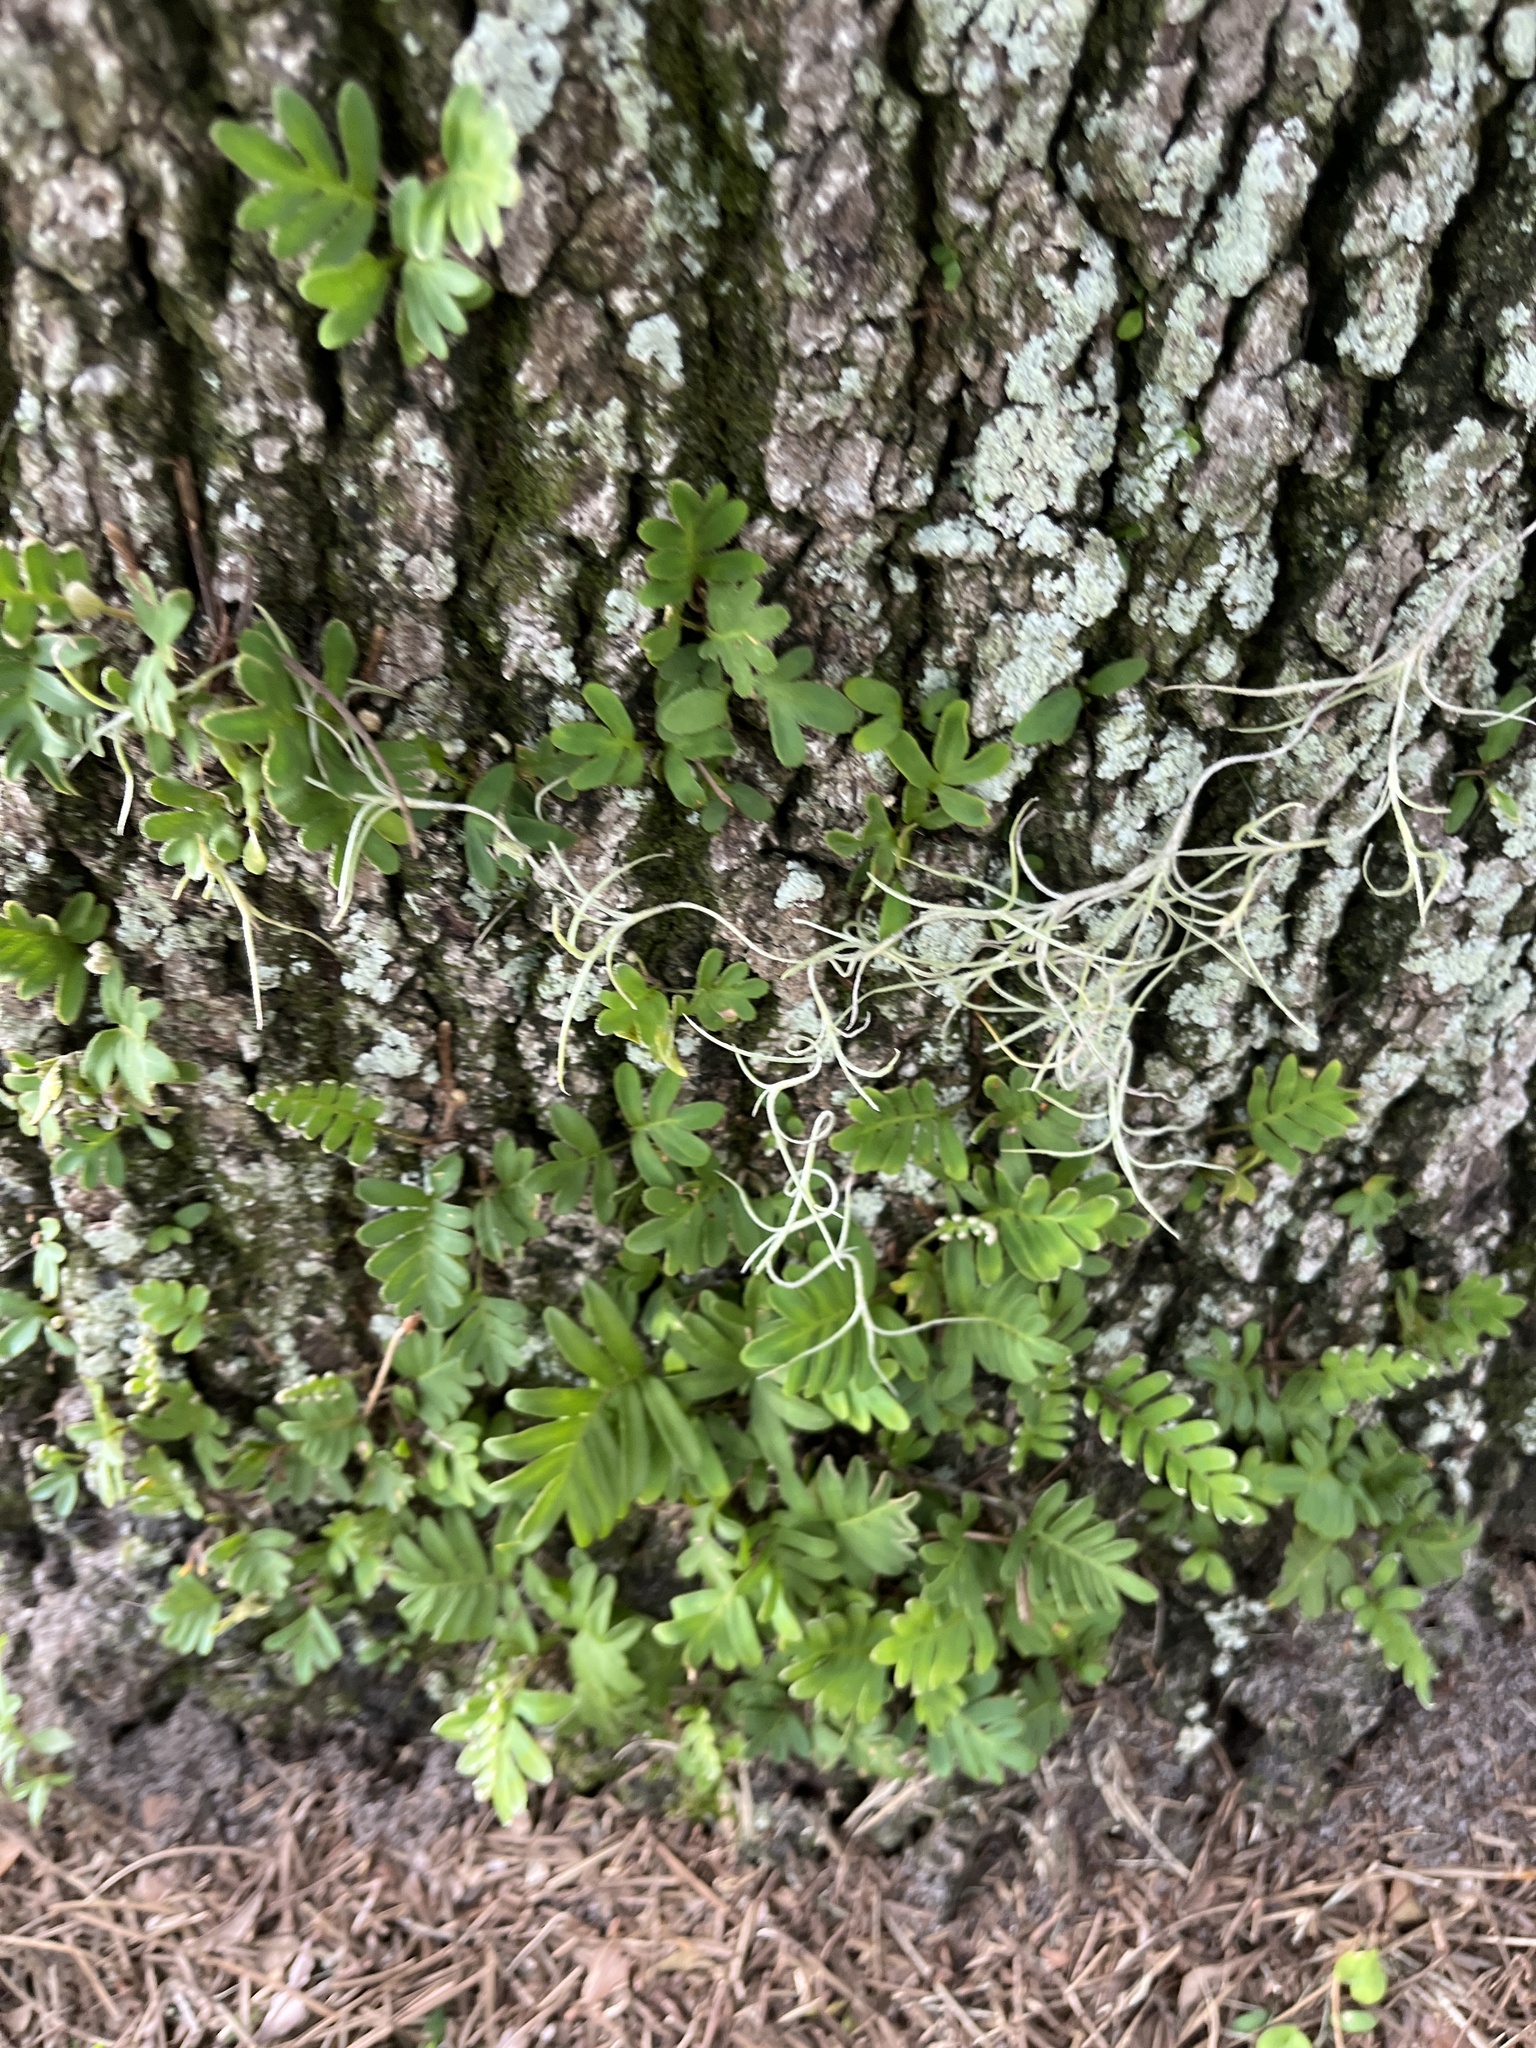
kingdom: Plantae
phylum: Tracheophyta
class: Polypodiopsida
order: Polypodiales
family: Polypodiaceae
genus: Pleopeltis
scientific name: Pleopeltis michauxiana
